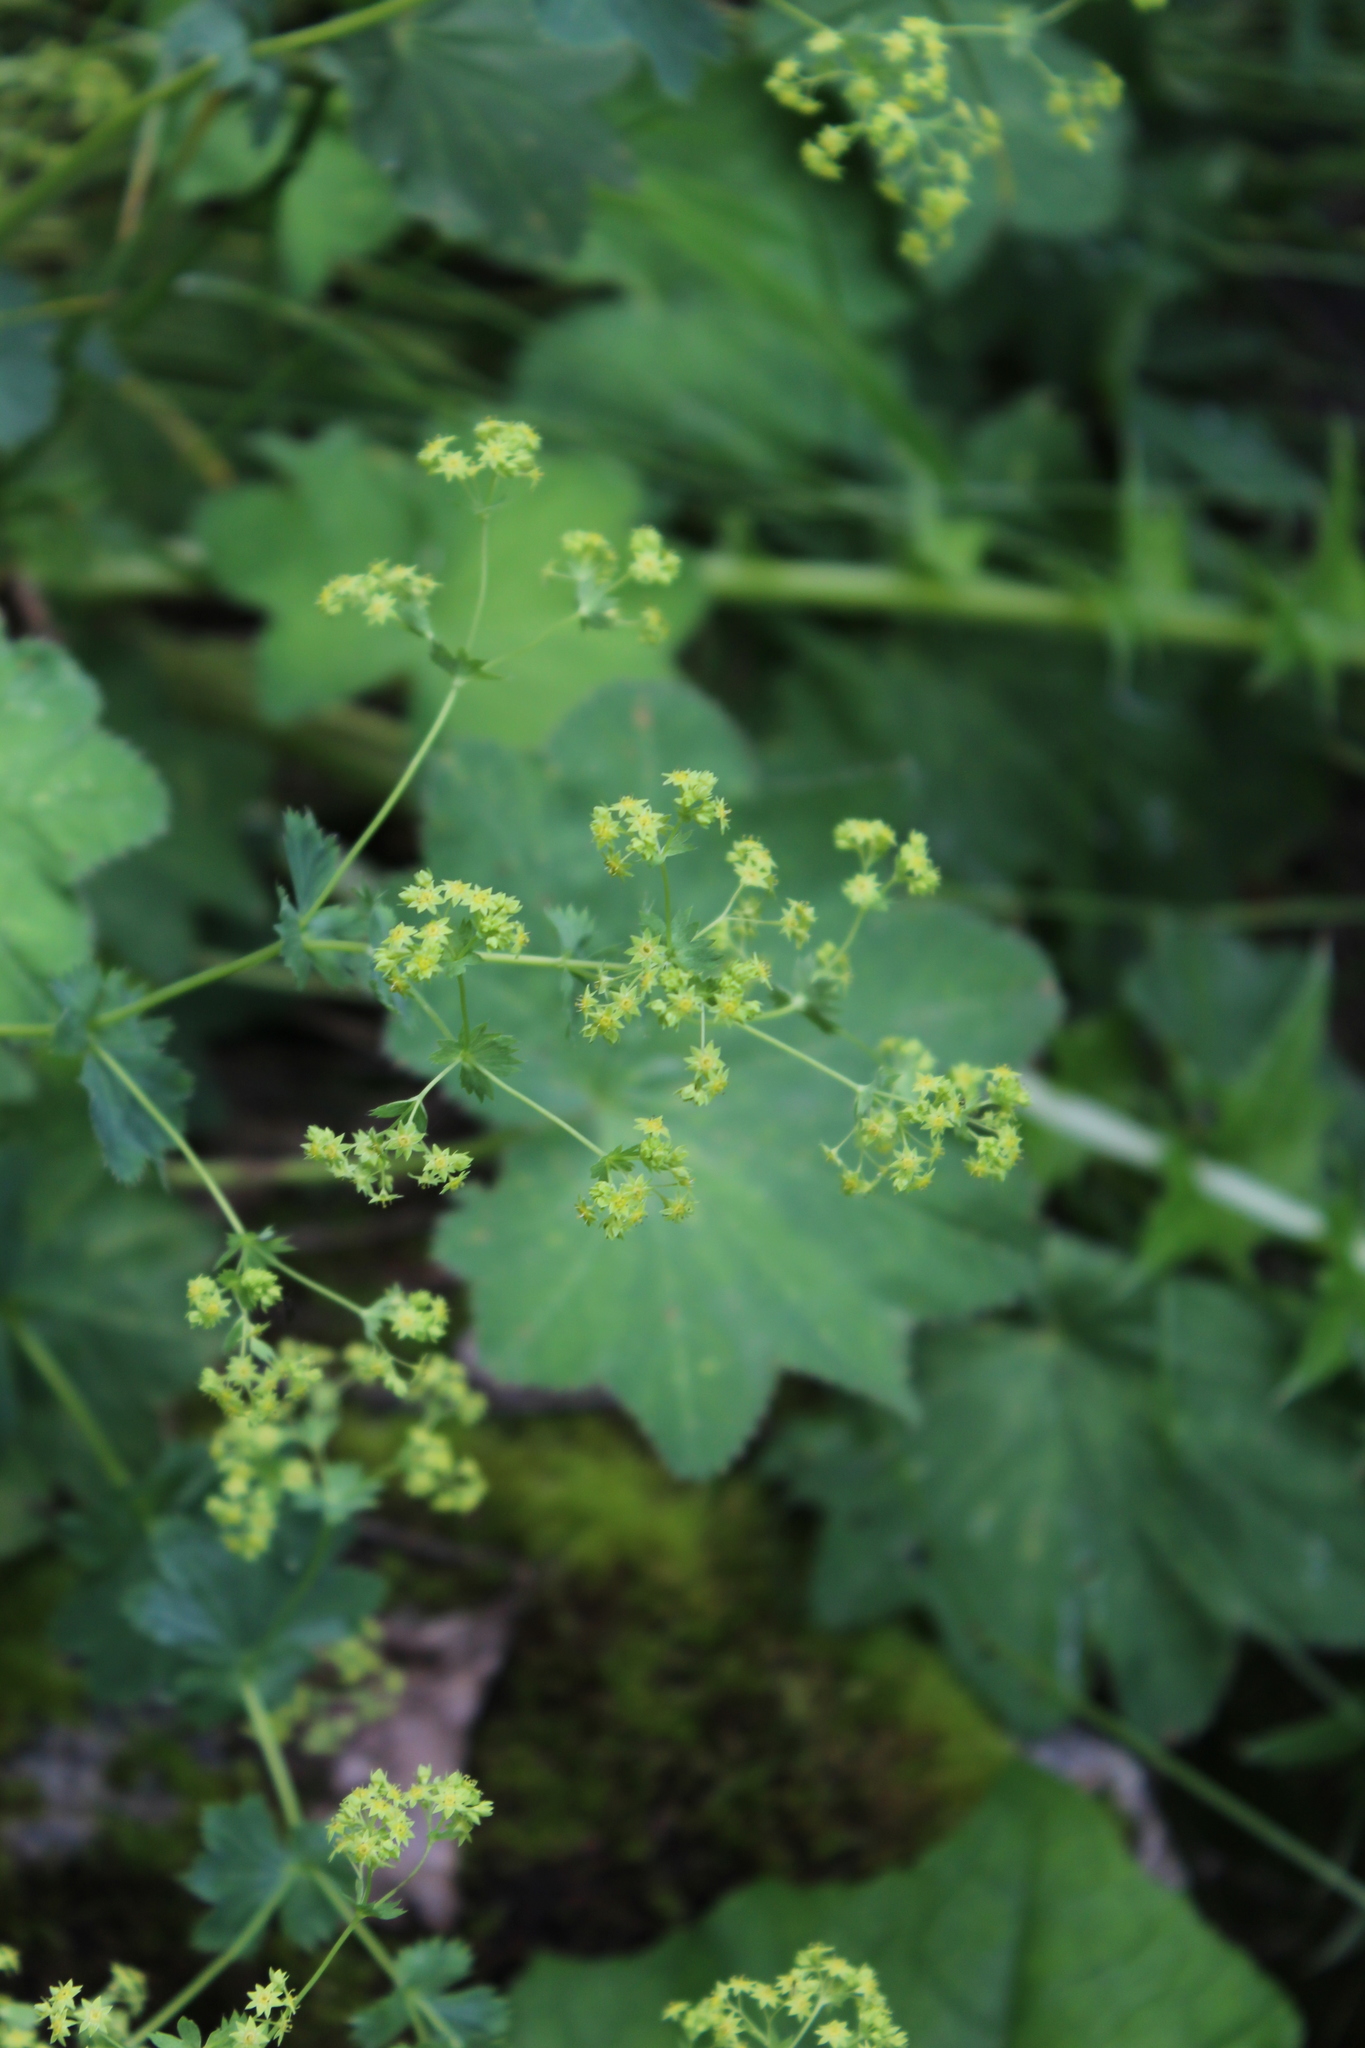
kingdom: Plantae
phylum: Tracheophyta
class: Magnoliopsida
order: Rosales
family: Rosaceae
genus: Alchemilla
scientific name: Alchemilla
